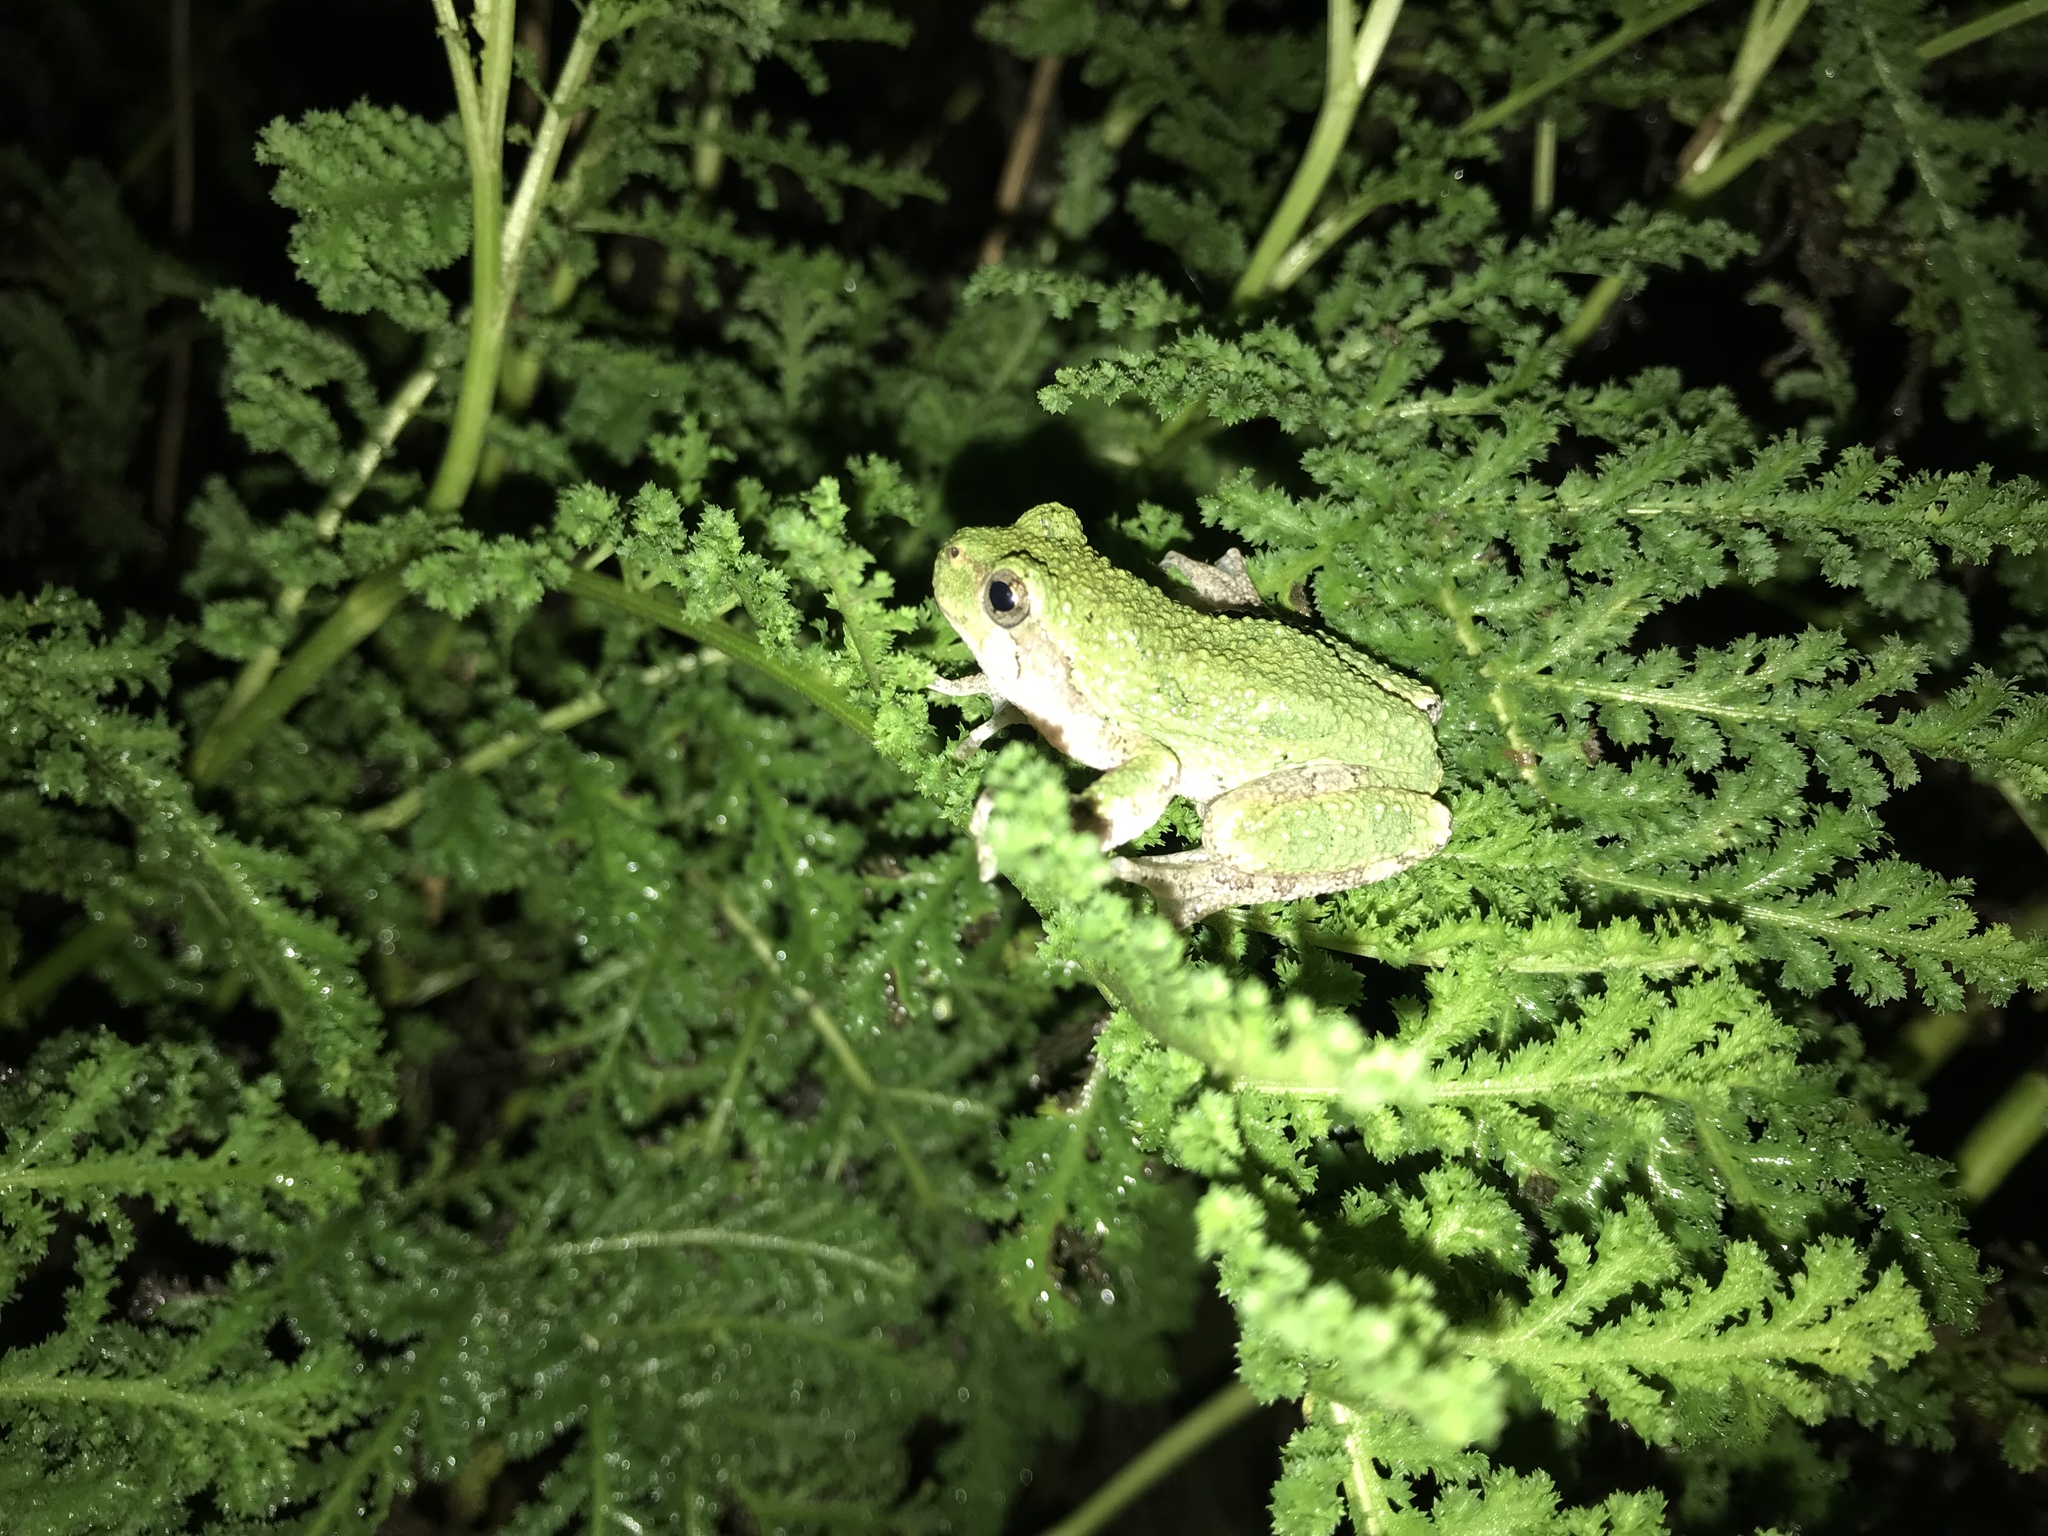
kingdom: Animalia
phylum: Chordata
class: Amphibia
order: Anura
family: Hylidae
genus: Dryophytes
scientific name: Dryophytes versicolor
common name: Gray treefrog
